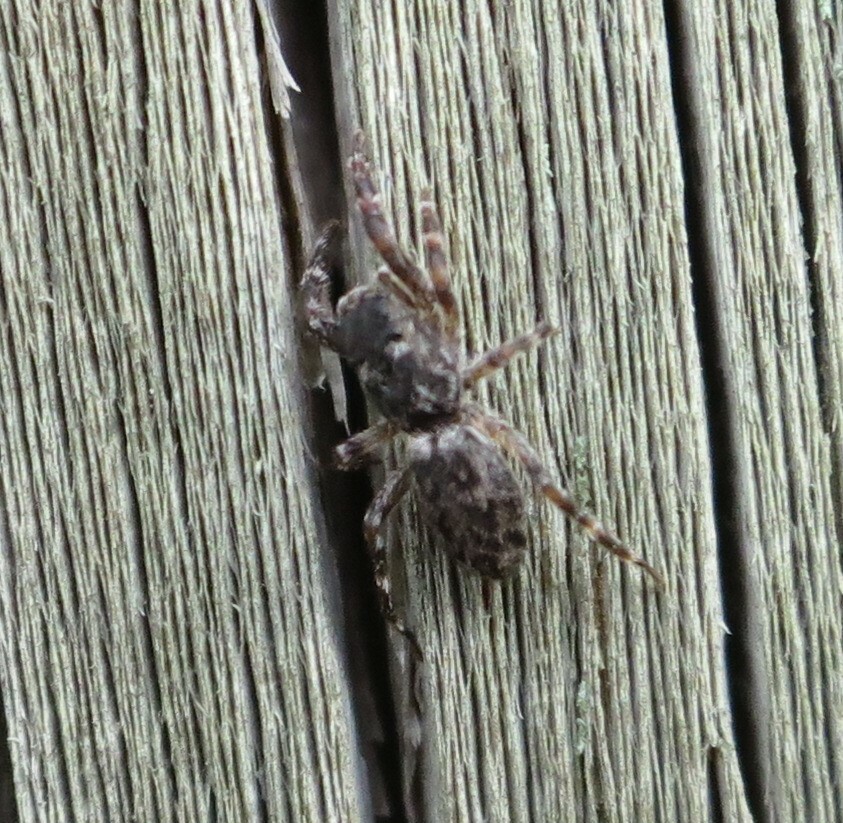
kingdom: Animalia
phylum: Arthropoda
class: Arachnida
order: Araneae
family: Salticidae
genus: Adoxotoma
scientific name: Adoxotoma forsteri
